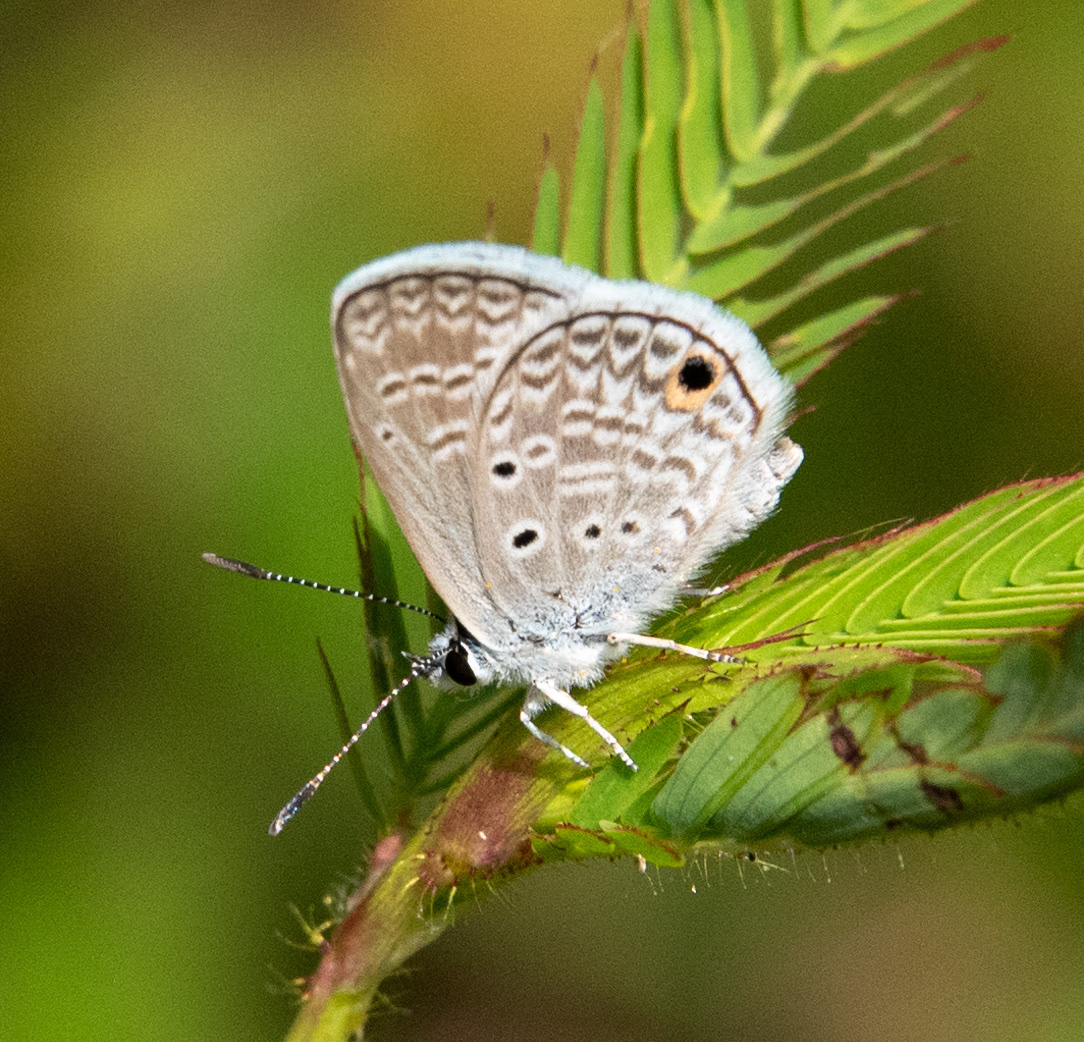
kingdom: Animalia
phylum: Arthropoda
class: Insecta
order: Lepidoptera
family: Lycaenidae
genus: Hemiargus
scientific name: Hemiargus hanno
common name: Common blue
